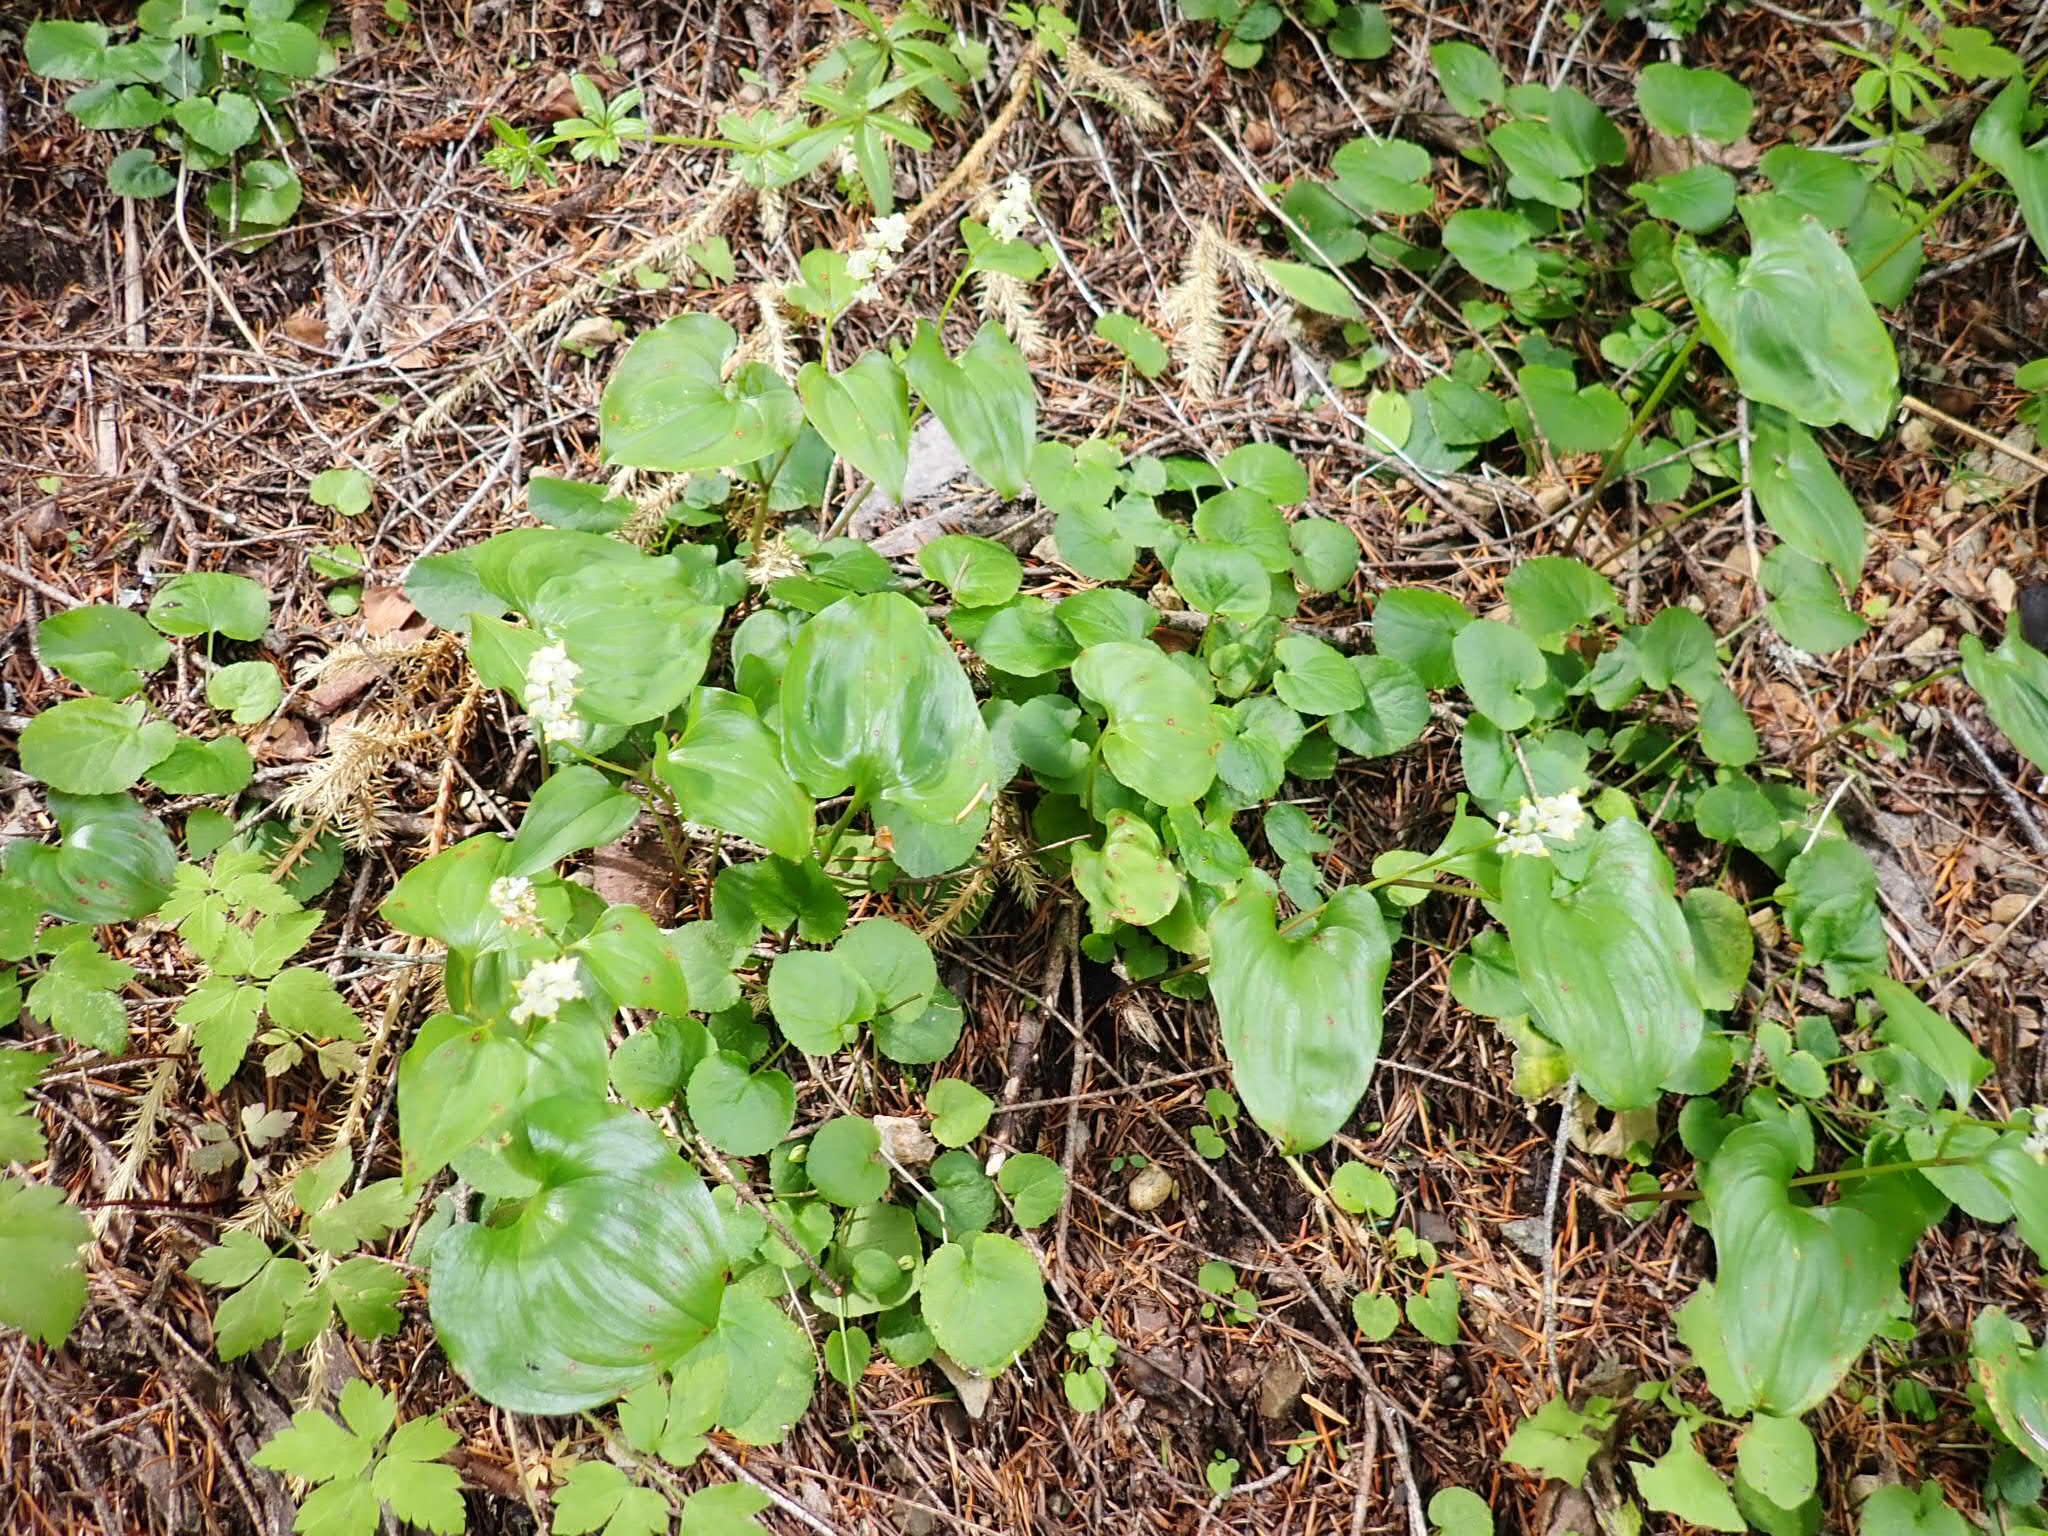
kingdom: Plantae
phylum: Tracheophyta
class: Liliopsida
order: Asparagales
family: Asparagaceae
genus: Maianthemum
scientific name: Maianthemum dilatatum
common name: False lily-of-the-valley
